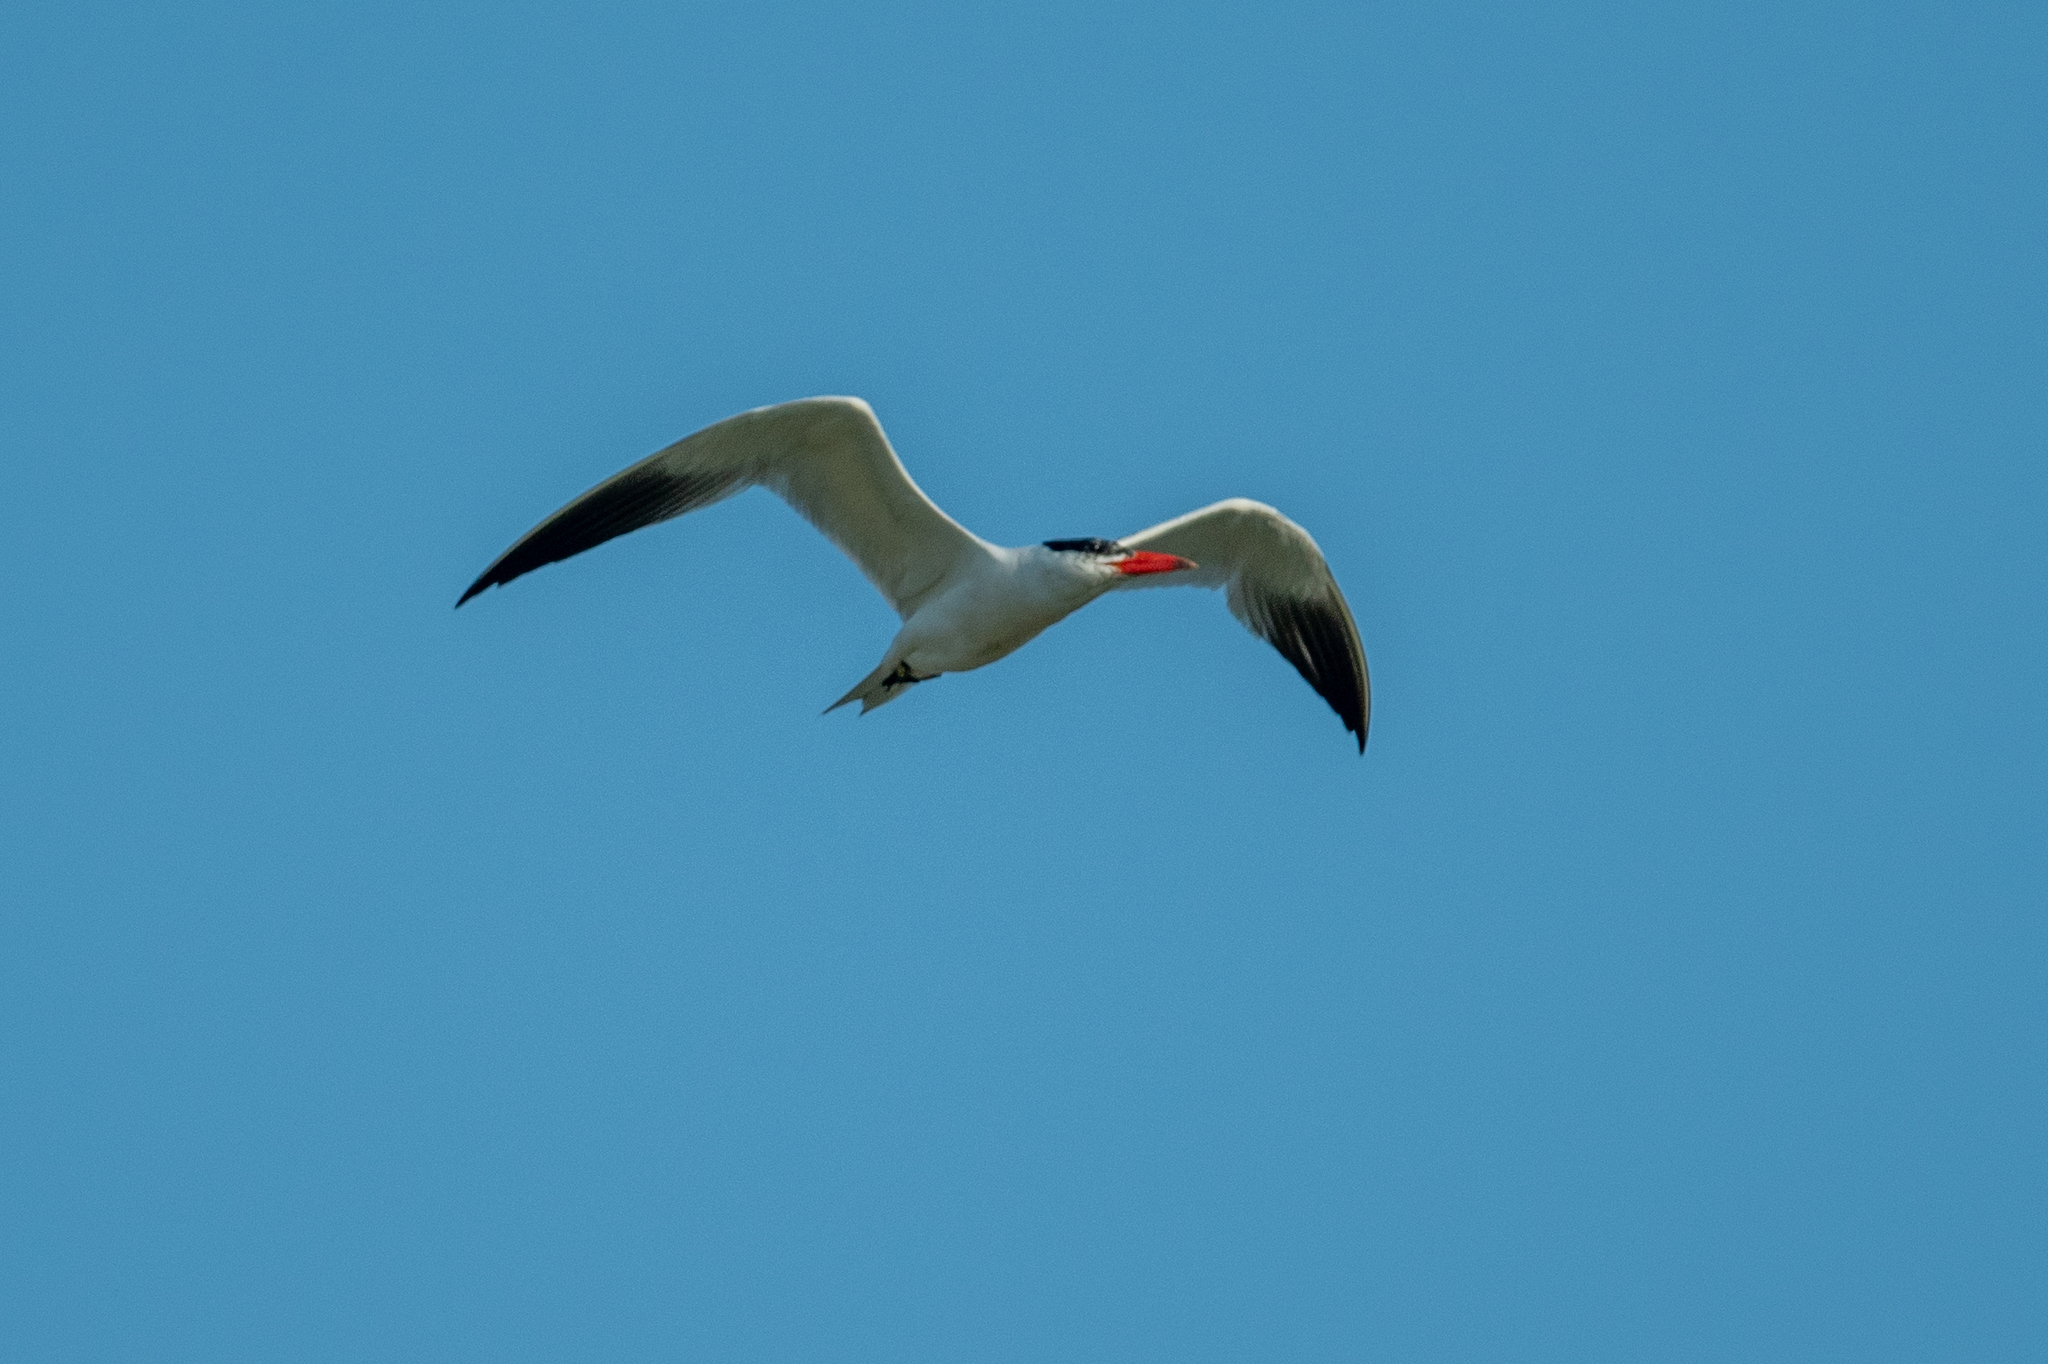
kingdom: Animalia
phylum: Chordata
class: Aves
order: Charadriiformes
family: Laridae
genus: Hydroprogne
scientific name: Hydroprogne caspia
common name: Caspian tern
